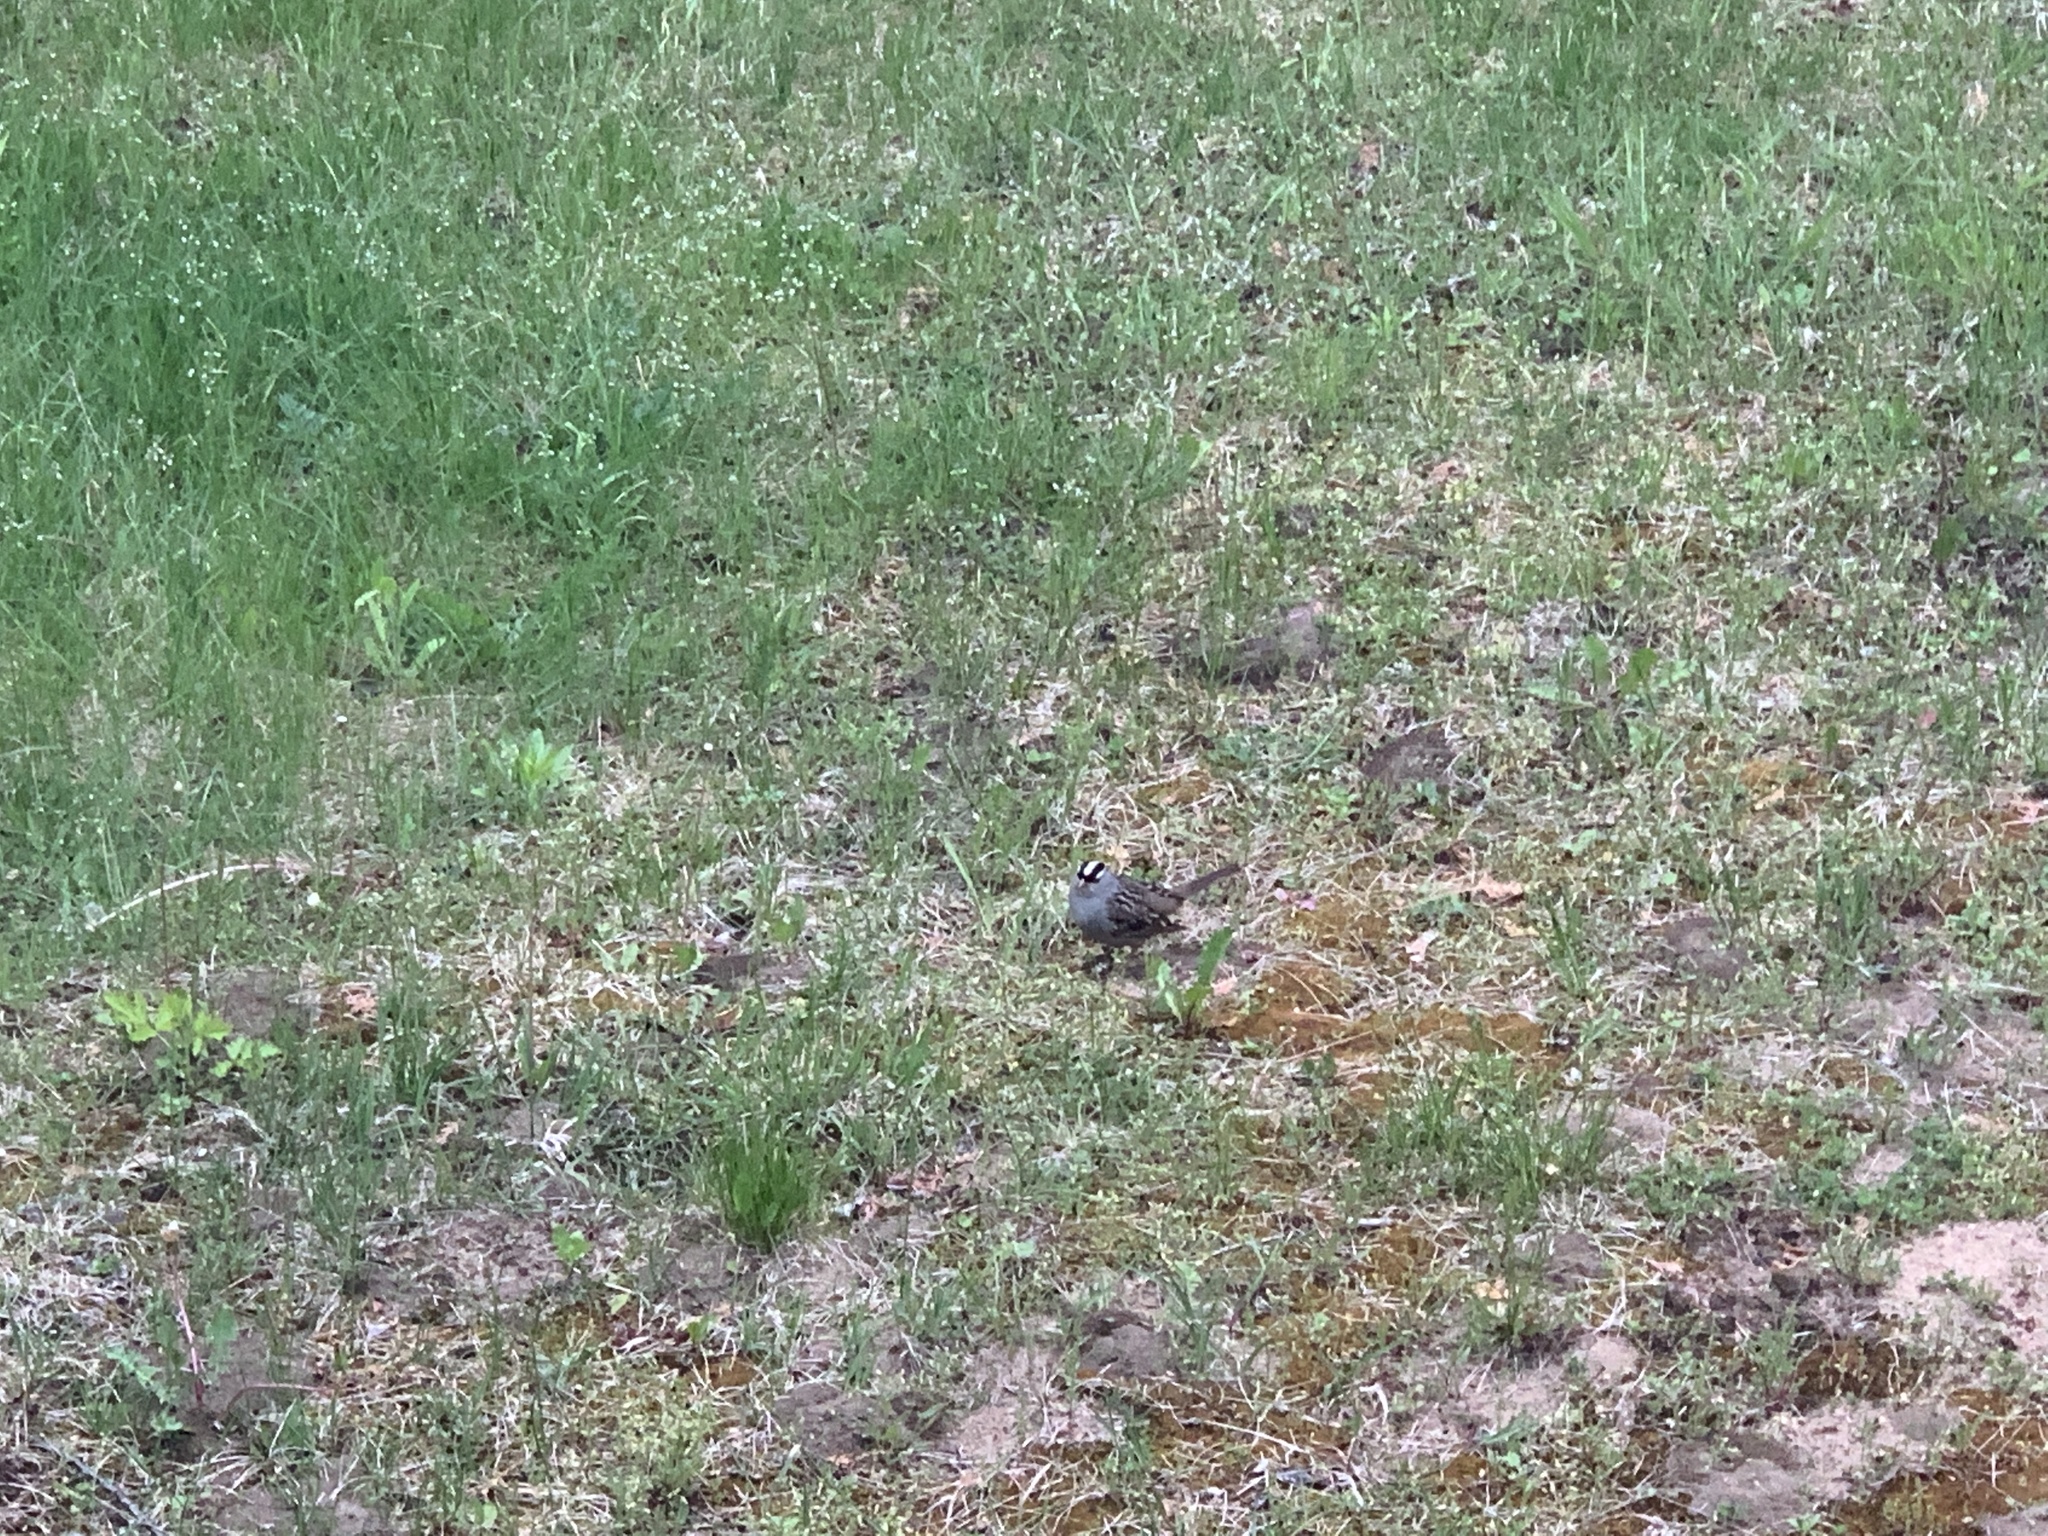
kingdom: Animalia
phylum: Chordata
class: Aves
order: Passeriformes
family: Passerellidae
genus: Zonotrichia
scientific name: Zonotrichia leucophrys
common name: White-crowned sparrow
